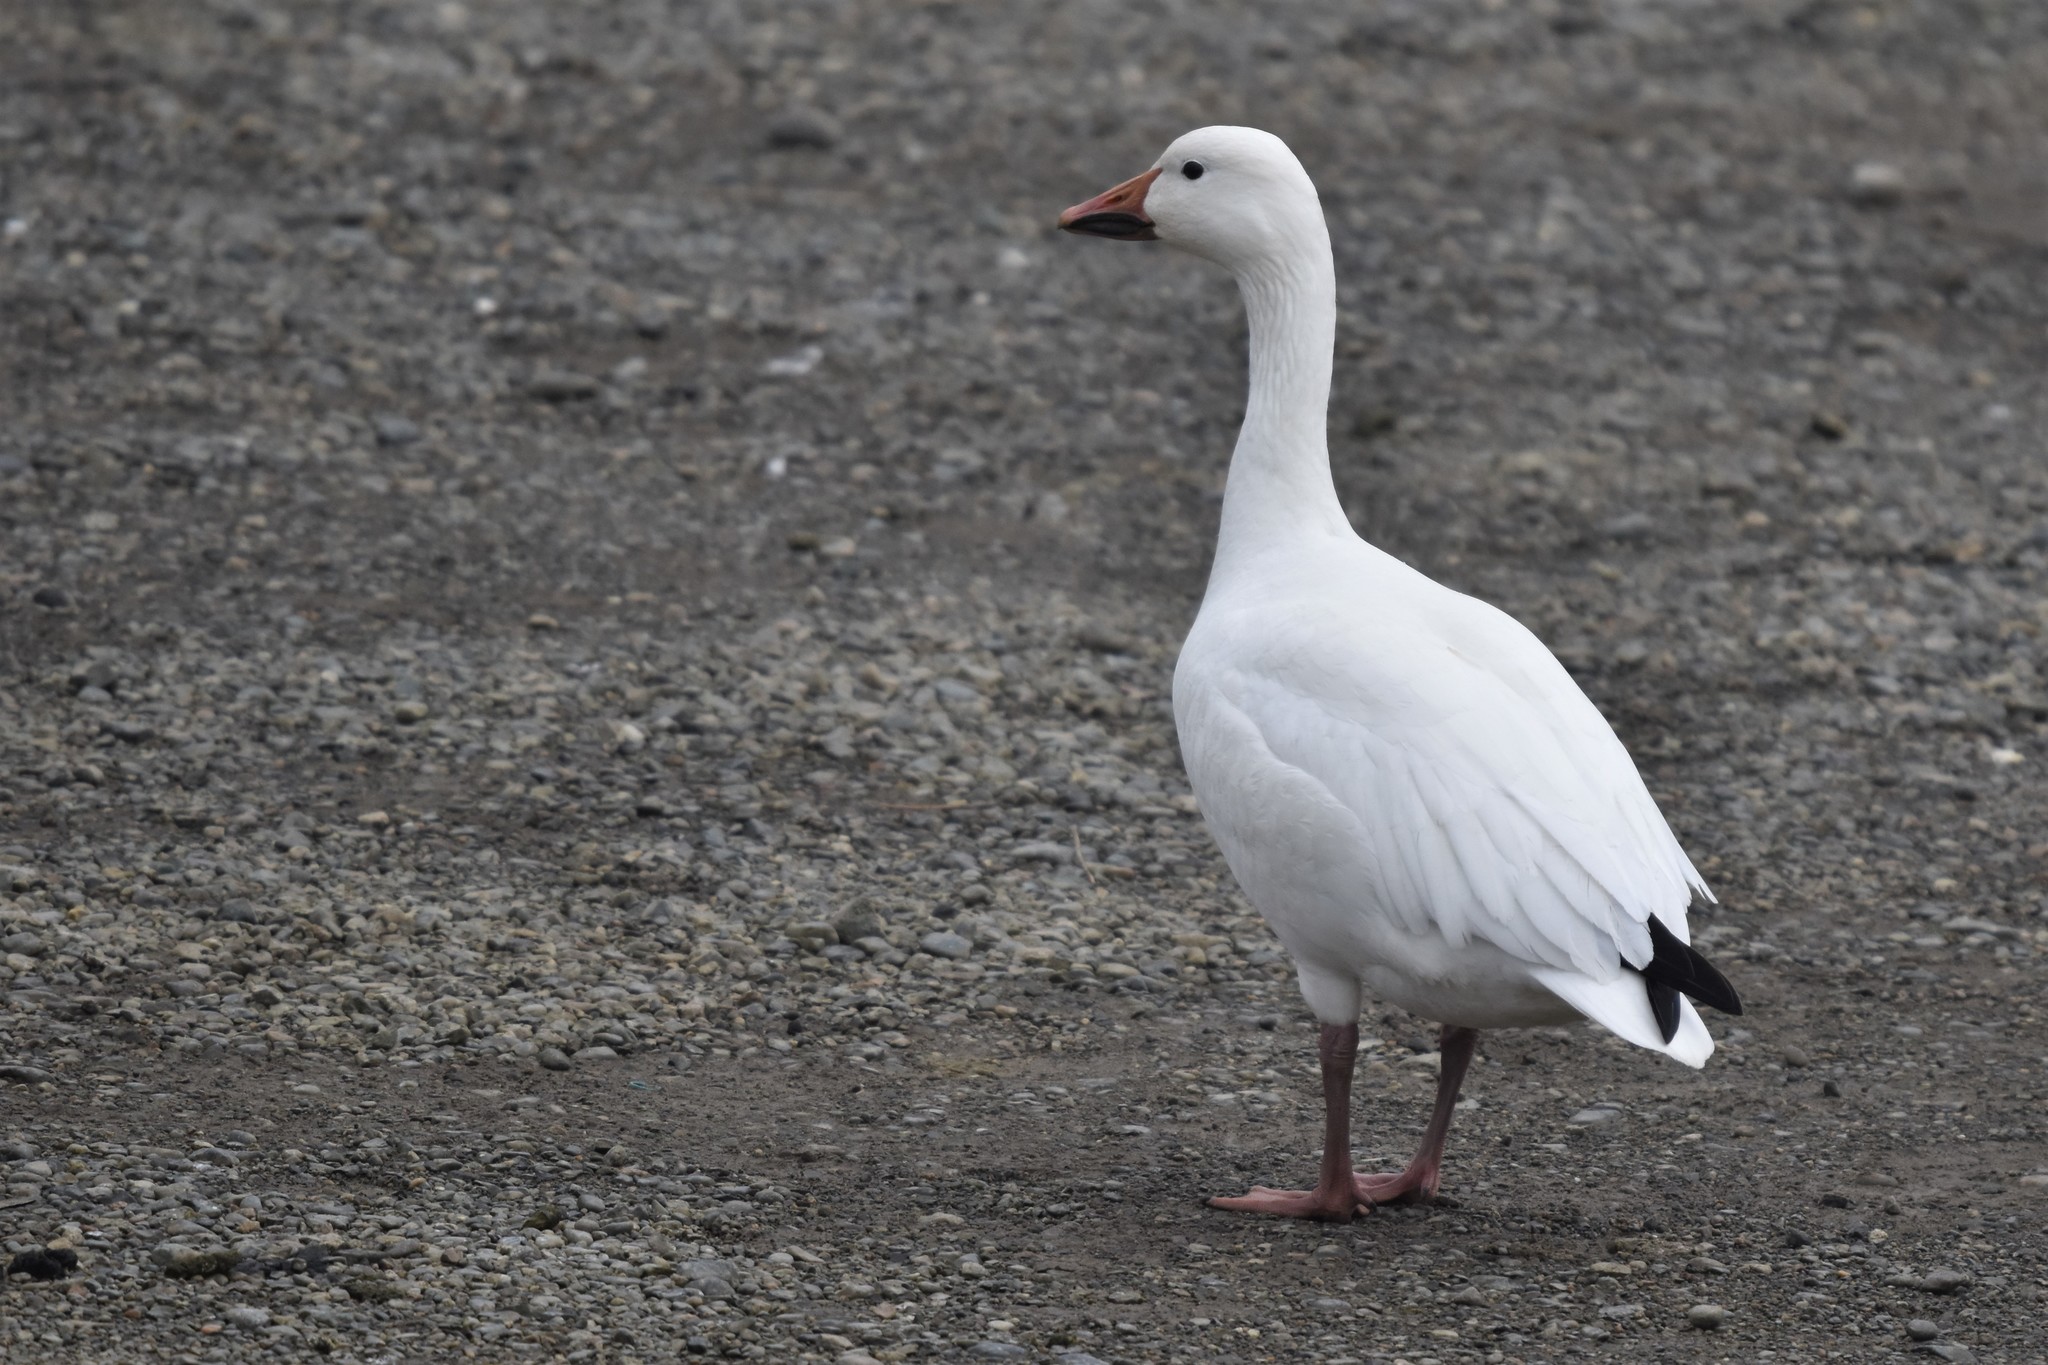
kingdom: Animalia
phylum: Chordata
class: Aves
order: Anseriformes
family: Anatidae
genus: Anser
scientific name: Anser caerulescens
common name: Snow goose
